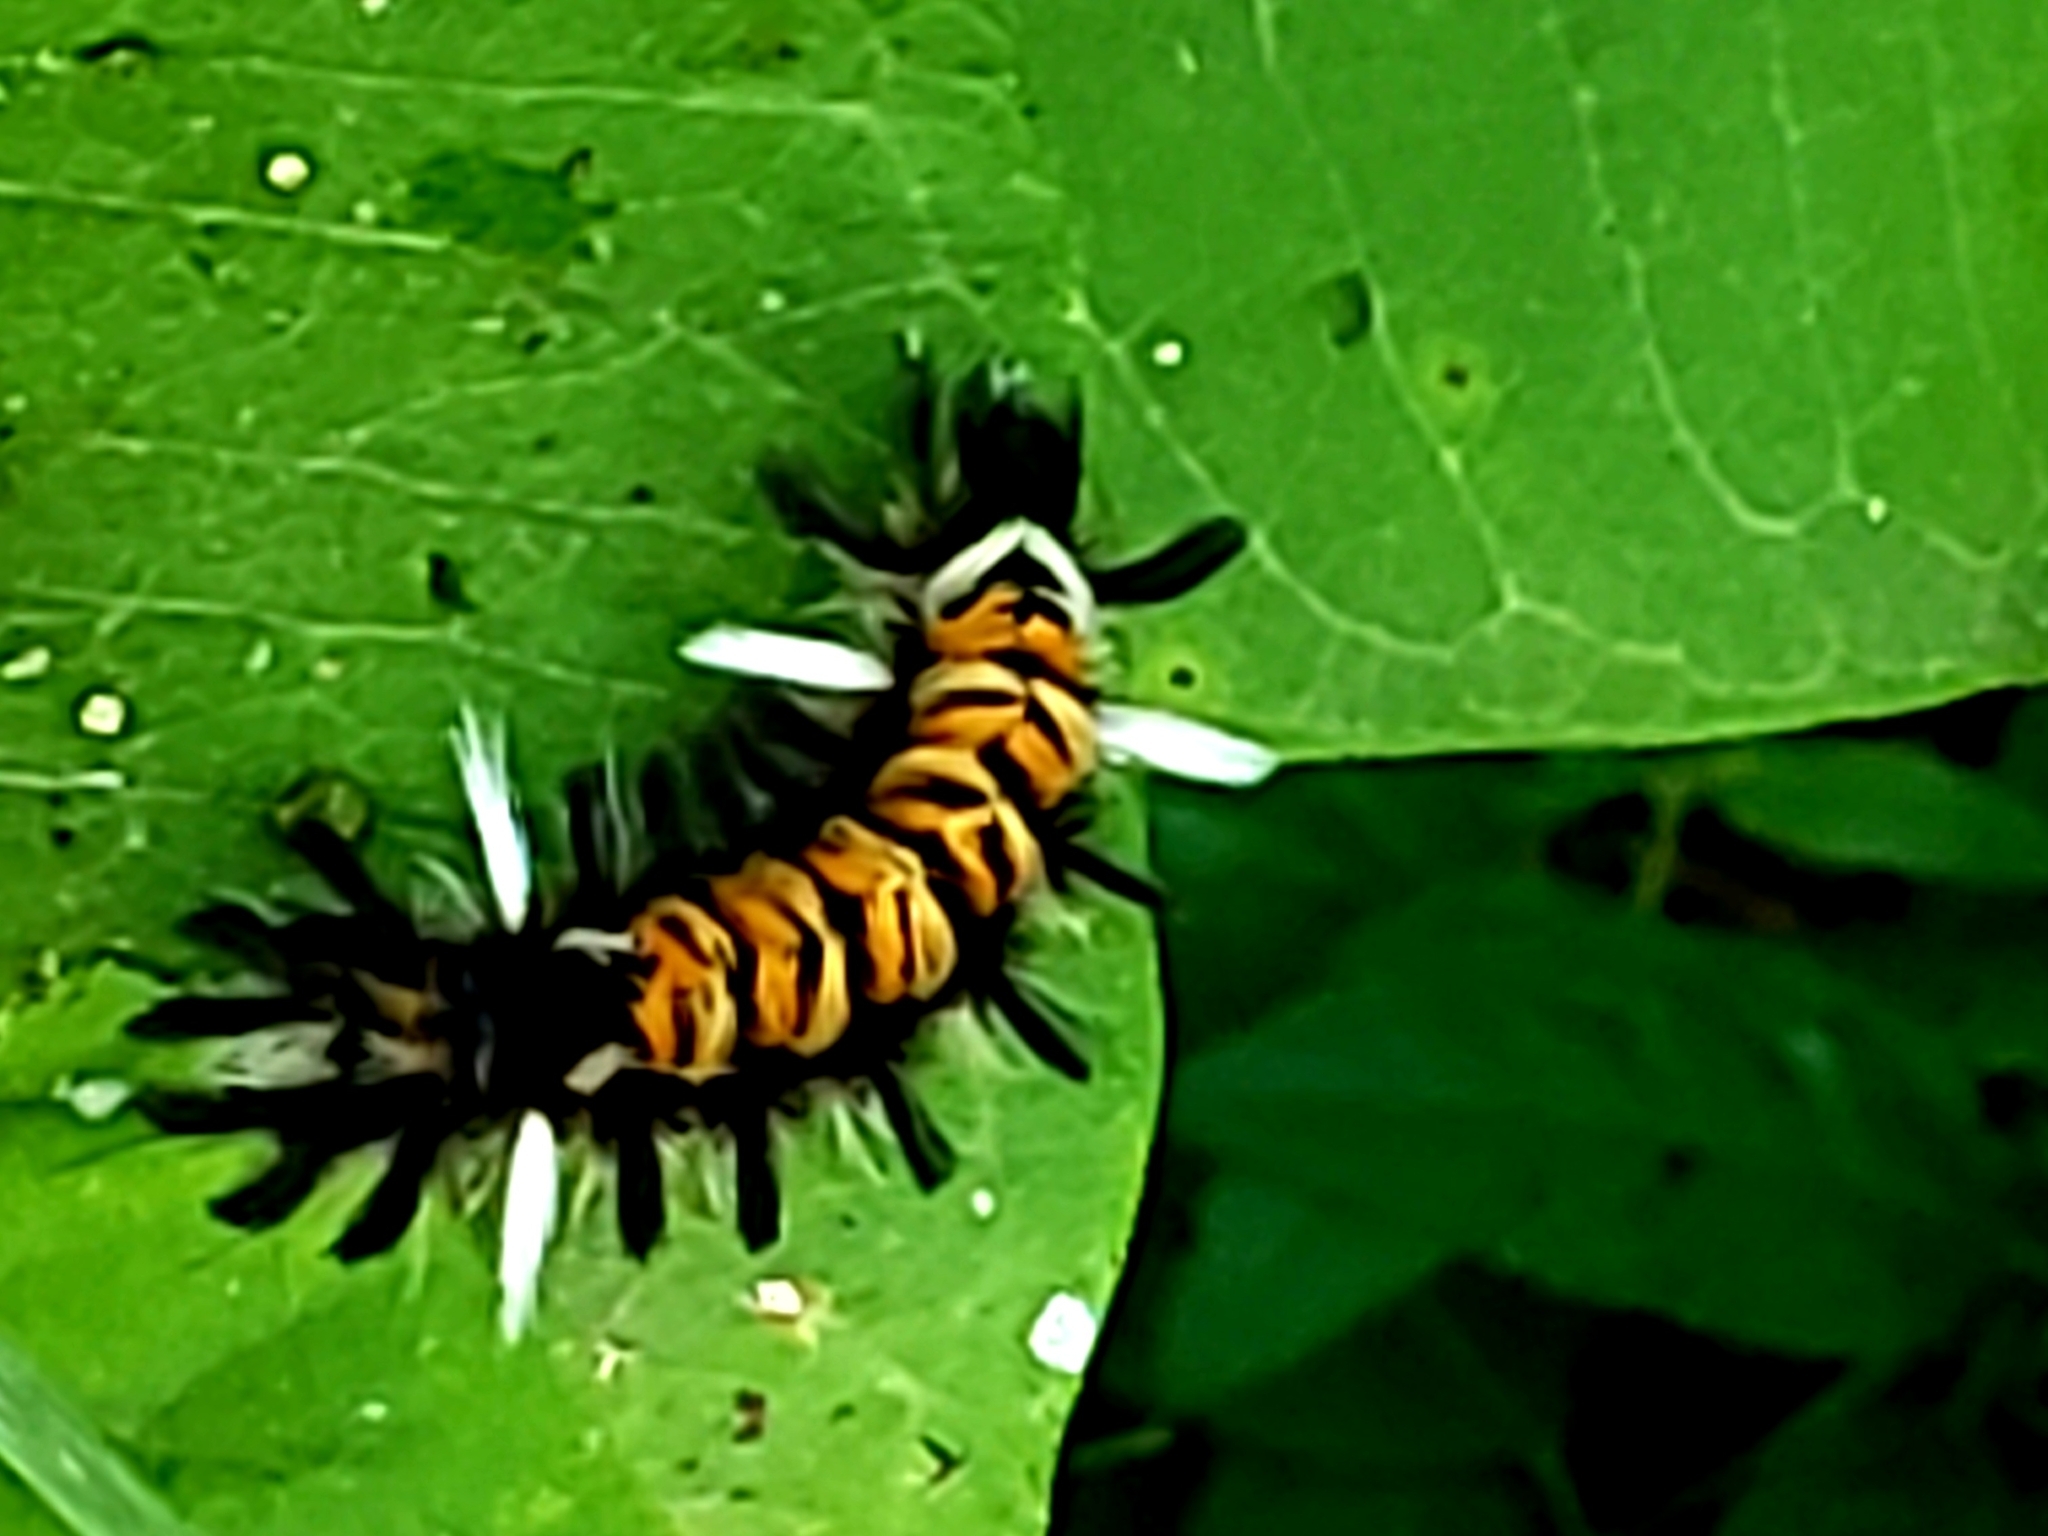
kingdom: Animalia
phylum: Arthropoda
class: Insecta
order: Lepidoptera
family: Erebidae
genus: Euchaetes
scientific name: Euchaetes egle
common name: Milkweed tussock moth
